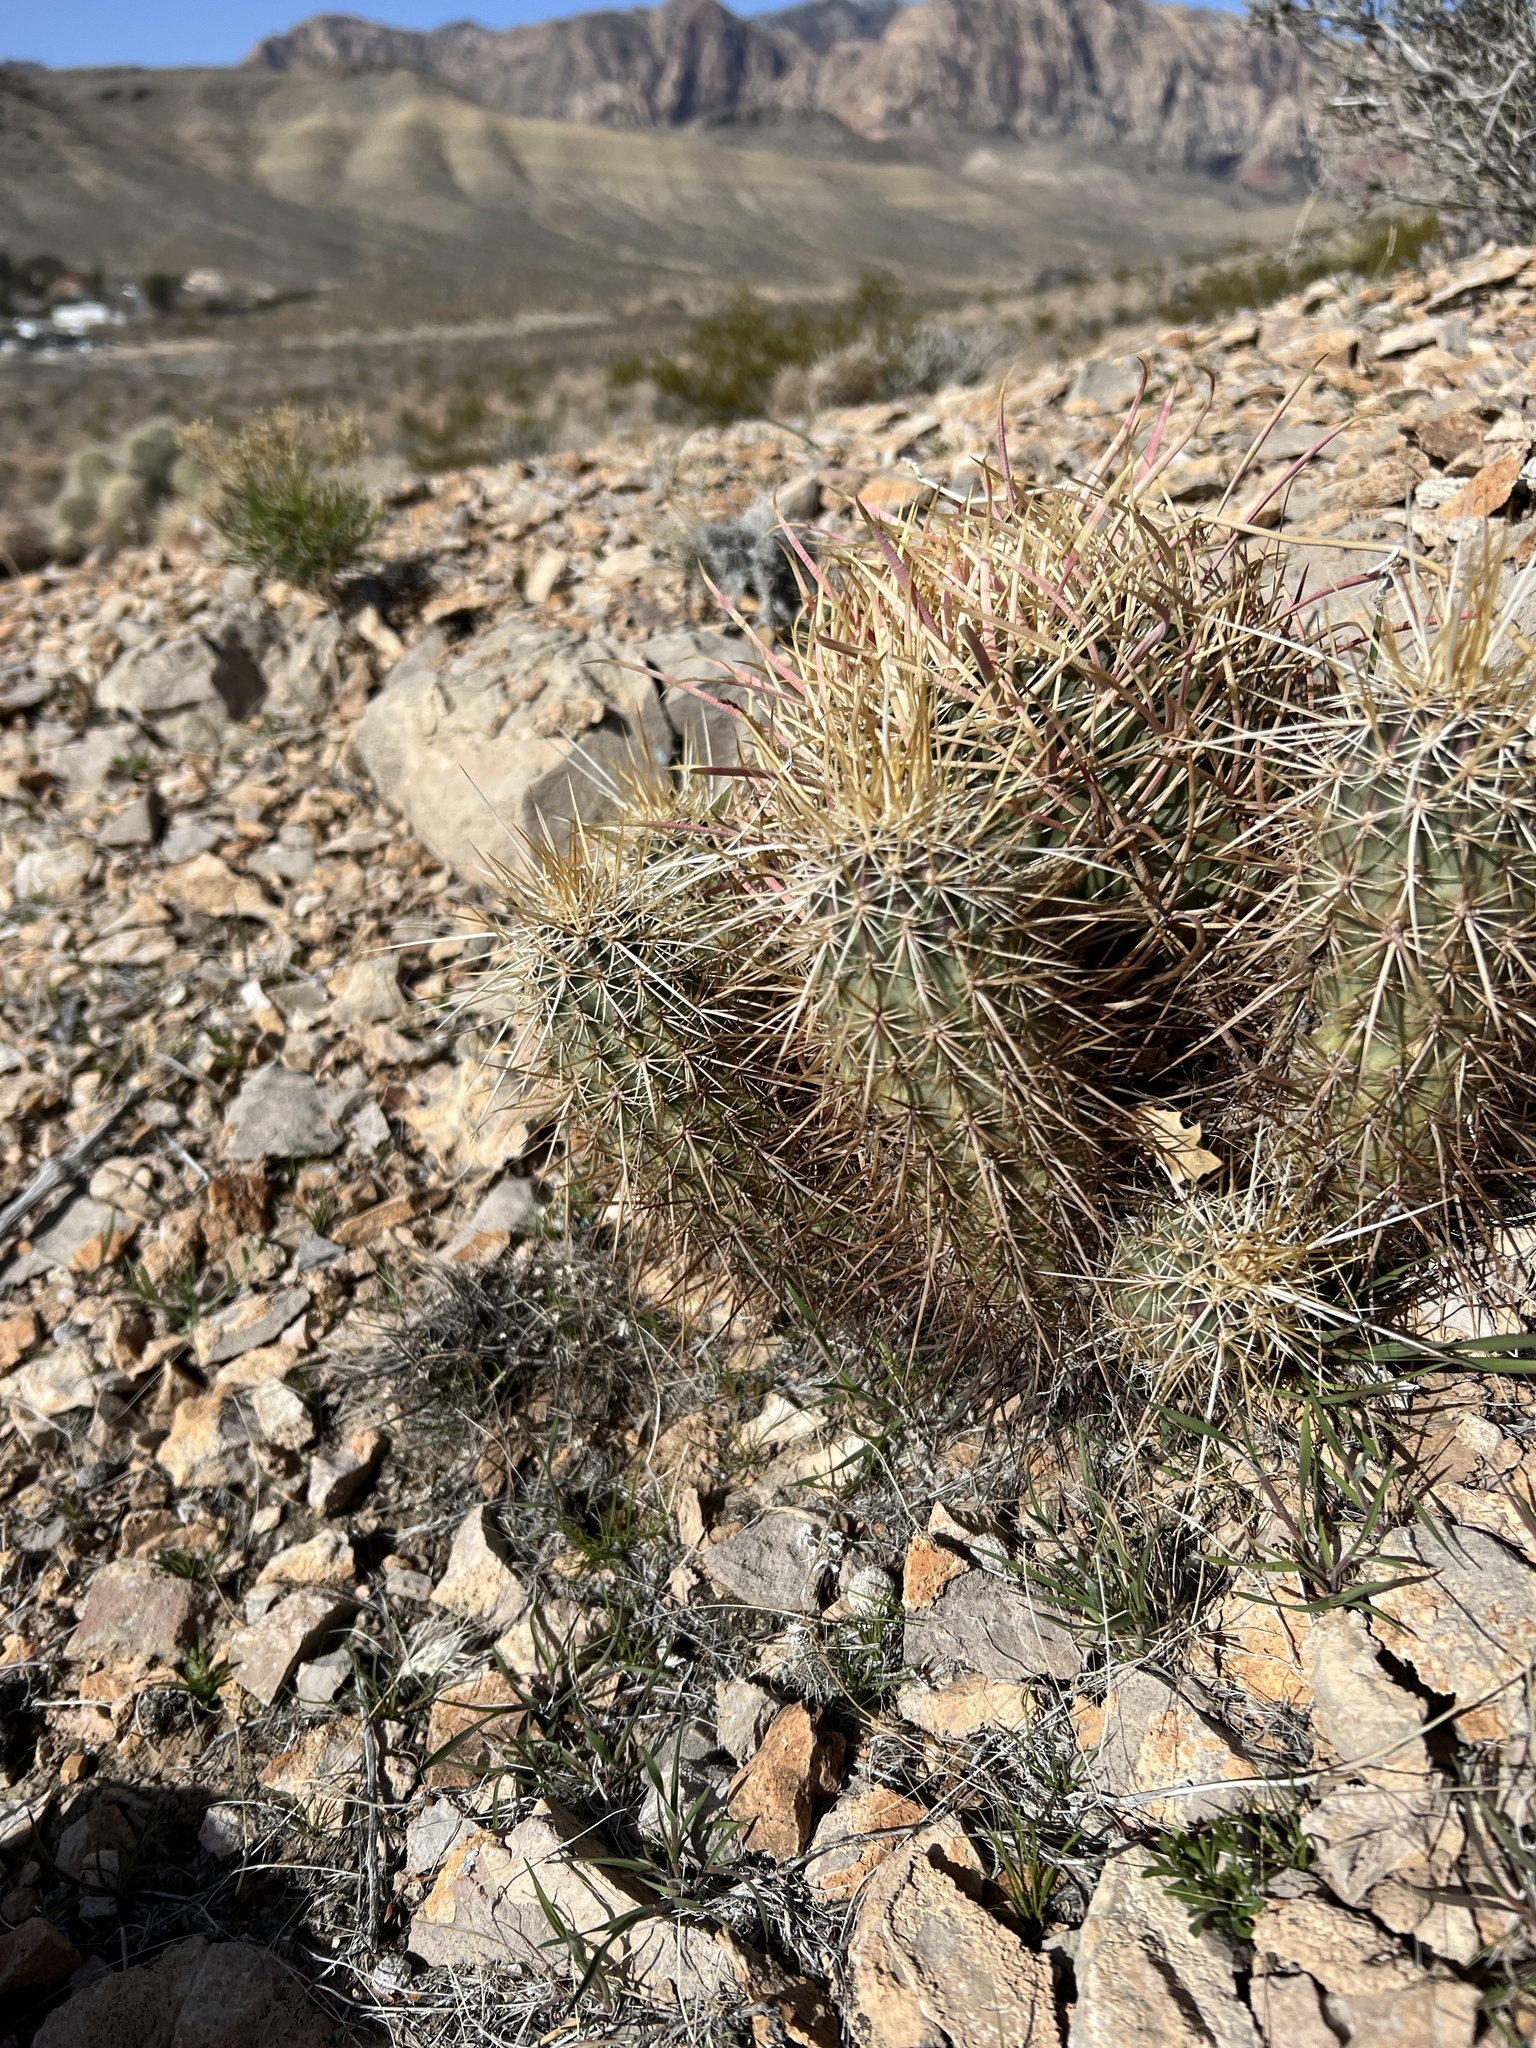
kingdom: Plantae
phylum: Tracheophyta
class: Magnoliopsida
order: Caryophyllales
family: Cactaceae
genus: Echinocereus
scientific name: Echinocereus engelmannii
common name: Engelmann's hedgehog cactus
